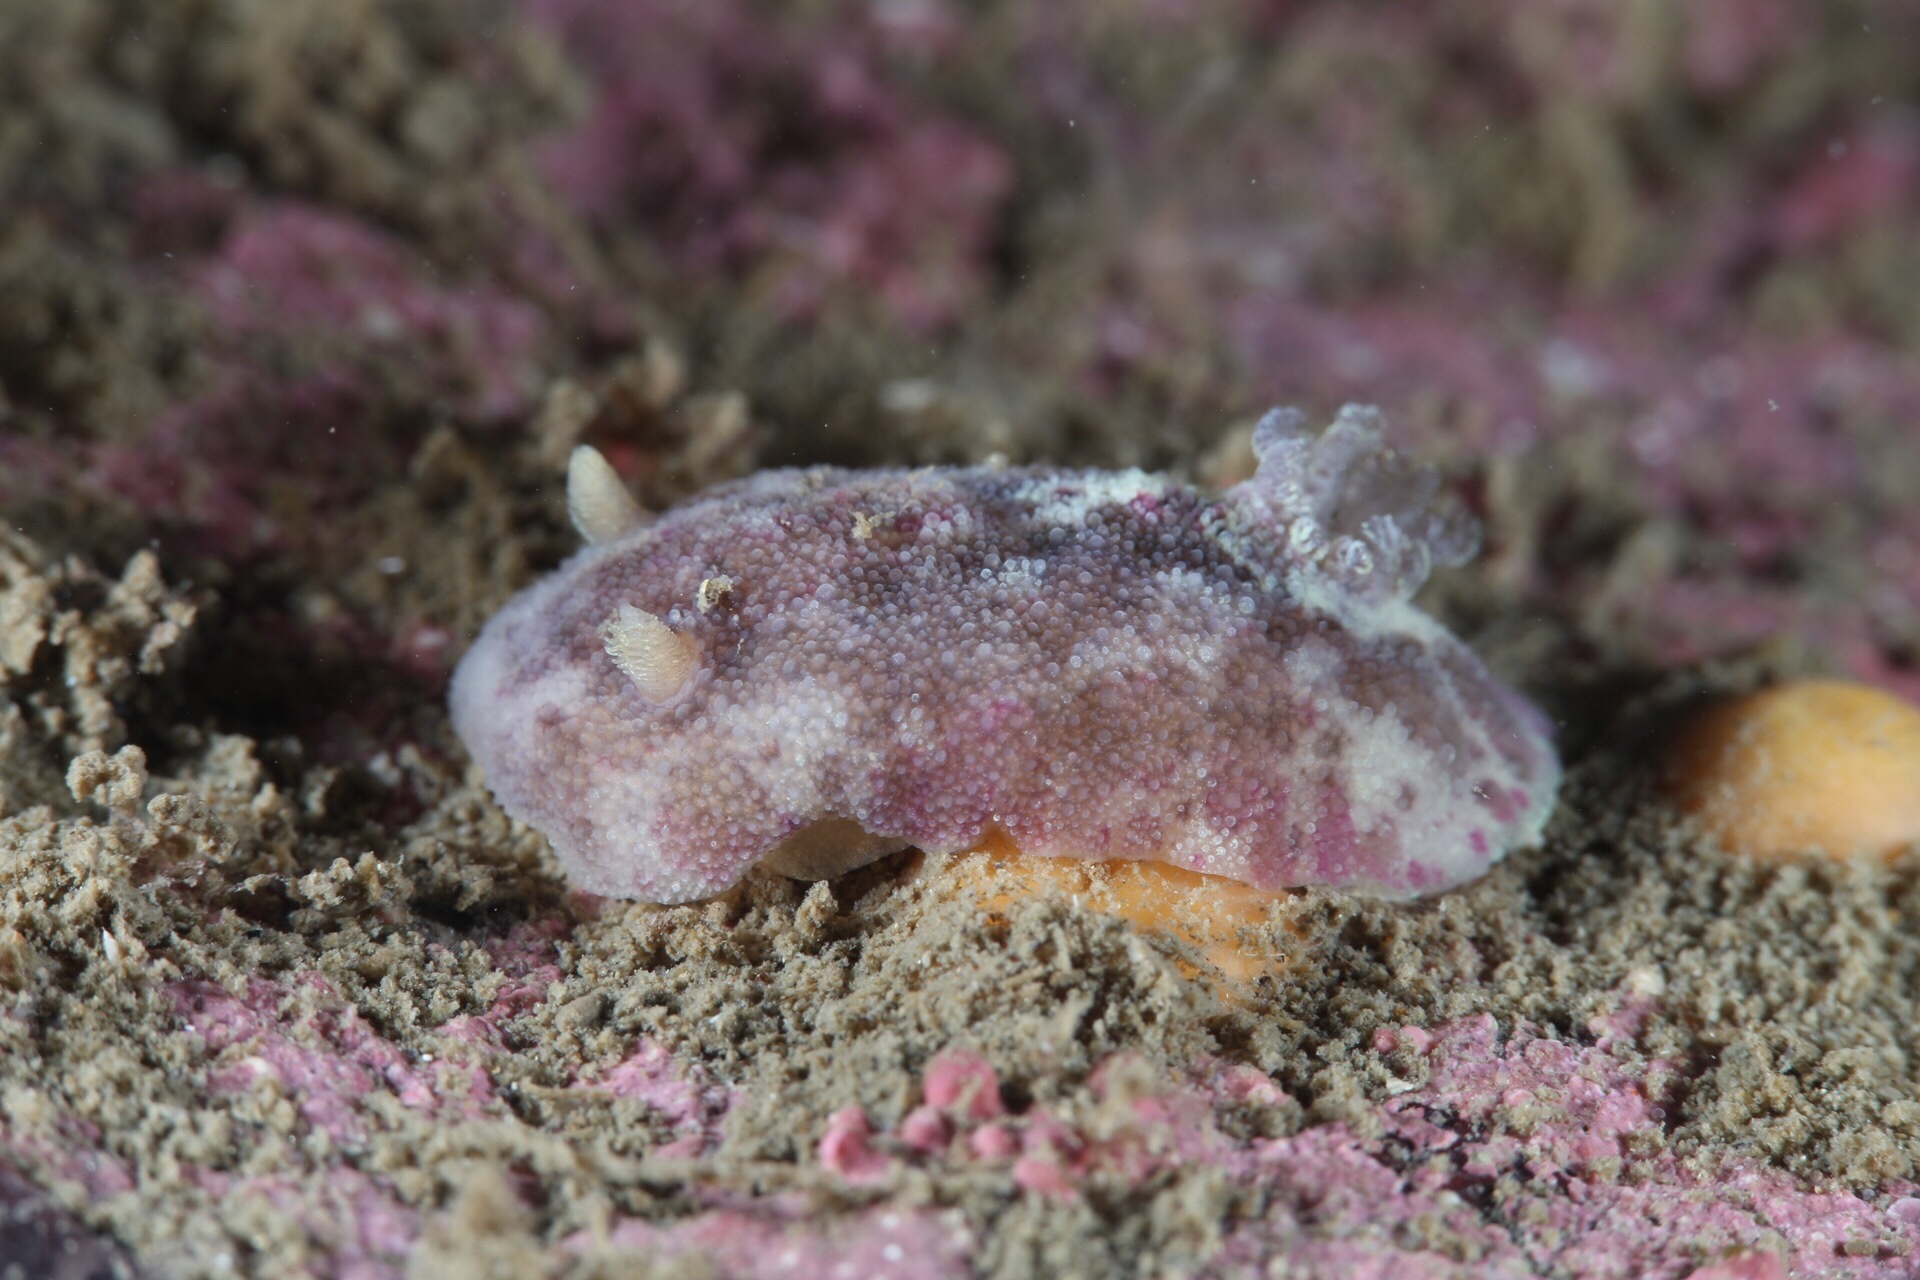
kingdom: Animalia
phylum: Mollusca
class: Gastropoda
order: Nudibranchia
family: Dorididae
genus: Doris
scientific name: Doris pseudoargus
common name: Sea lemon
